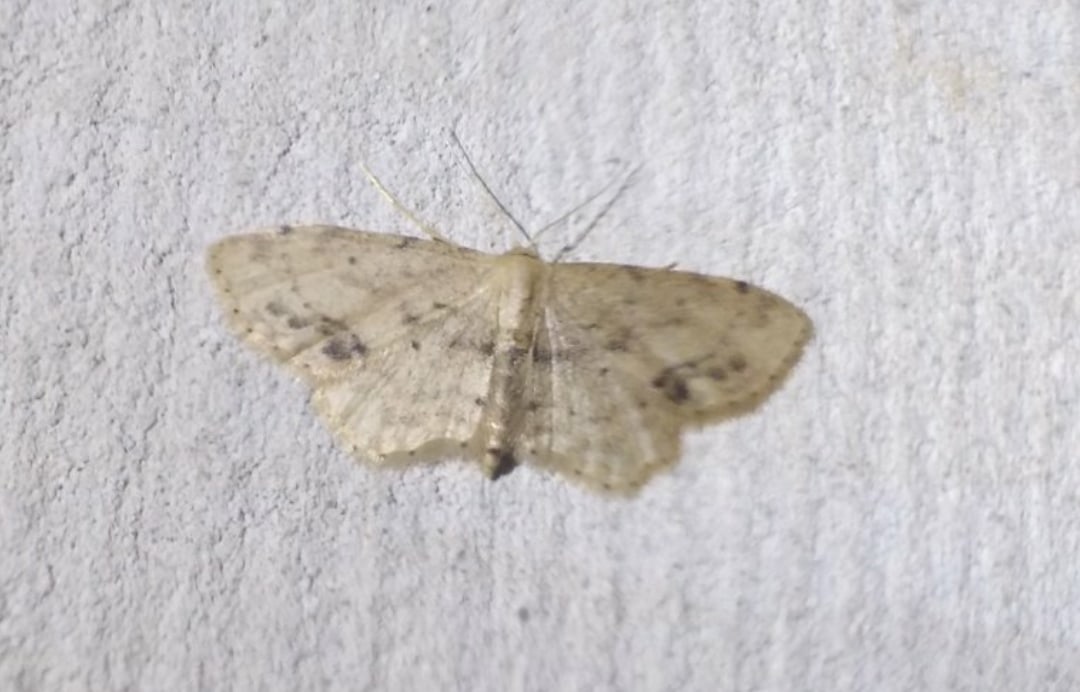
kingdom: Animalia
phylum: Arthropoda
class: Insecta
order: Lepidoptera
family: Geometridae
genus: Idaea
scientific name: Idaea dimidiata
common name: Single-dotted wave
